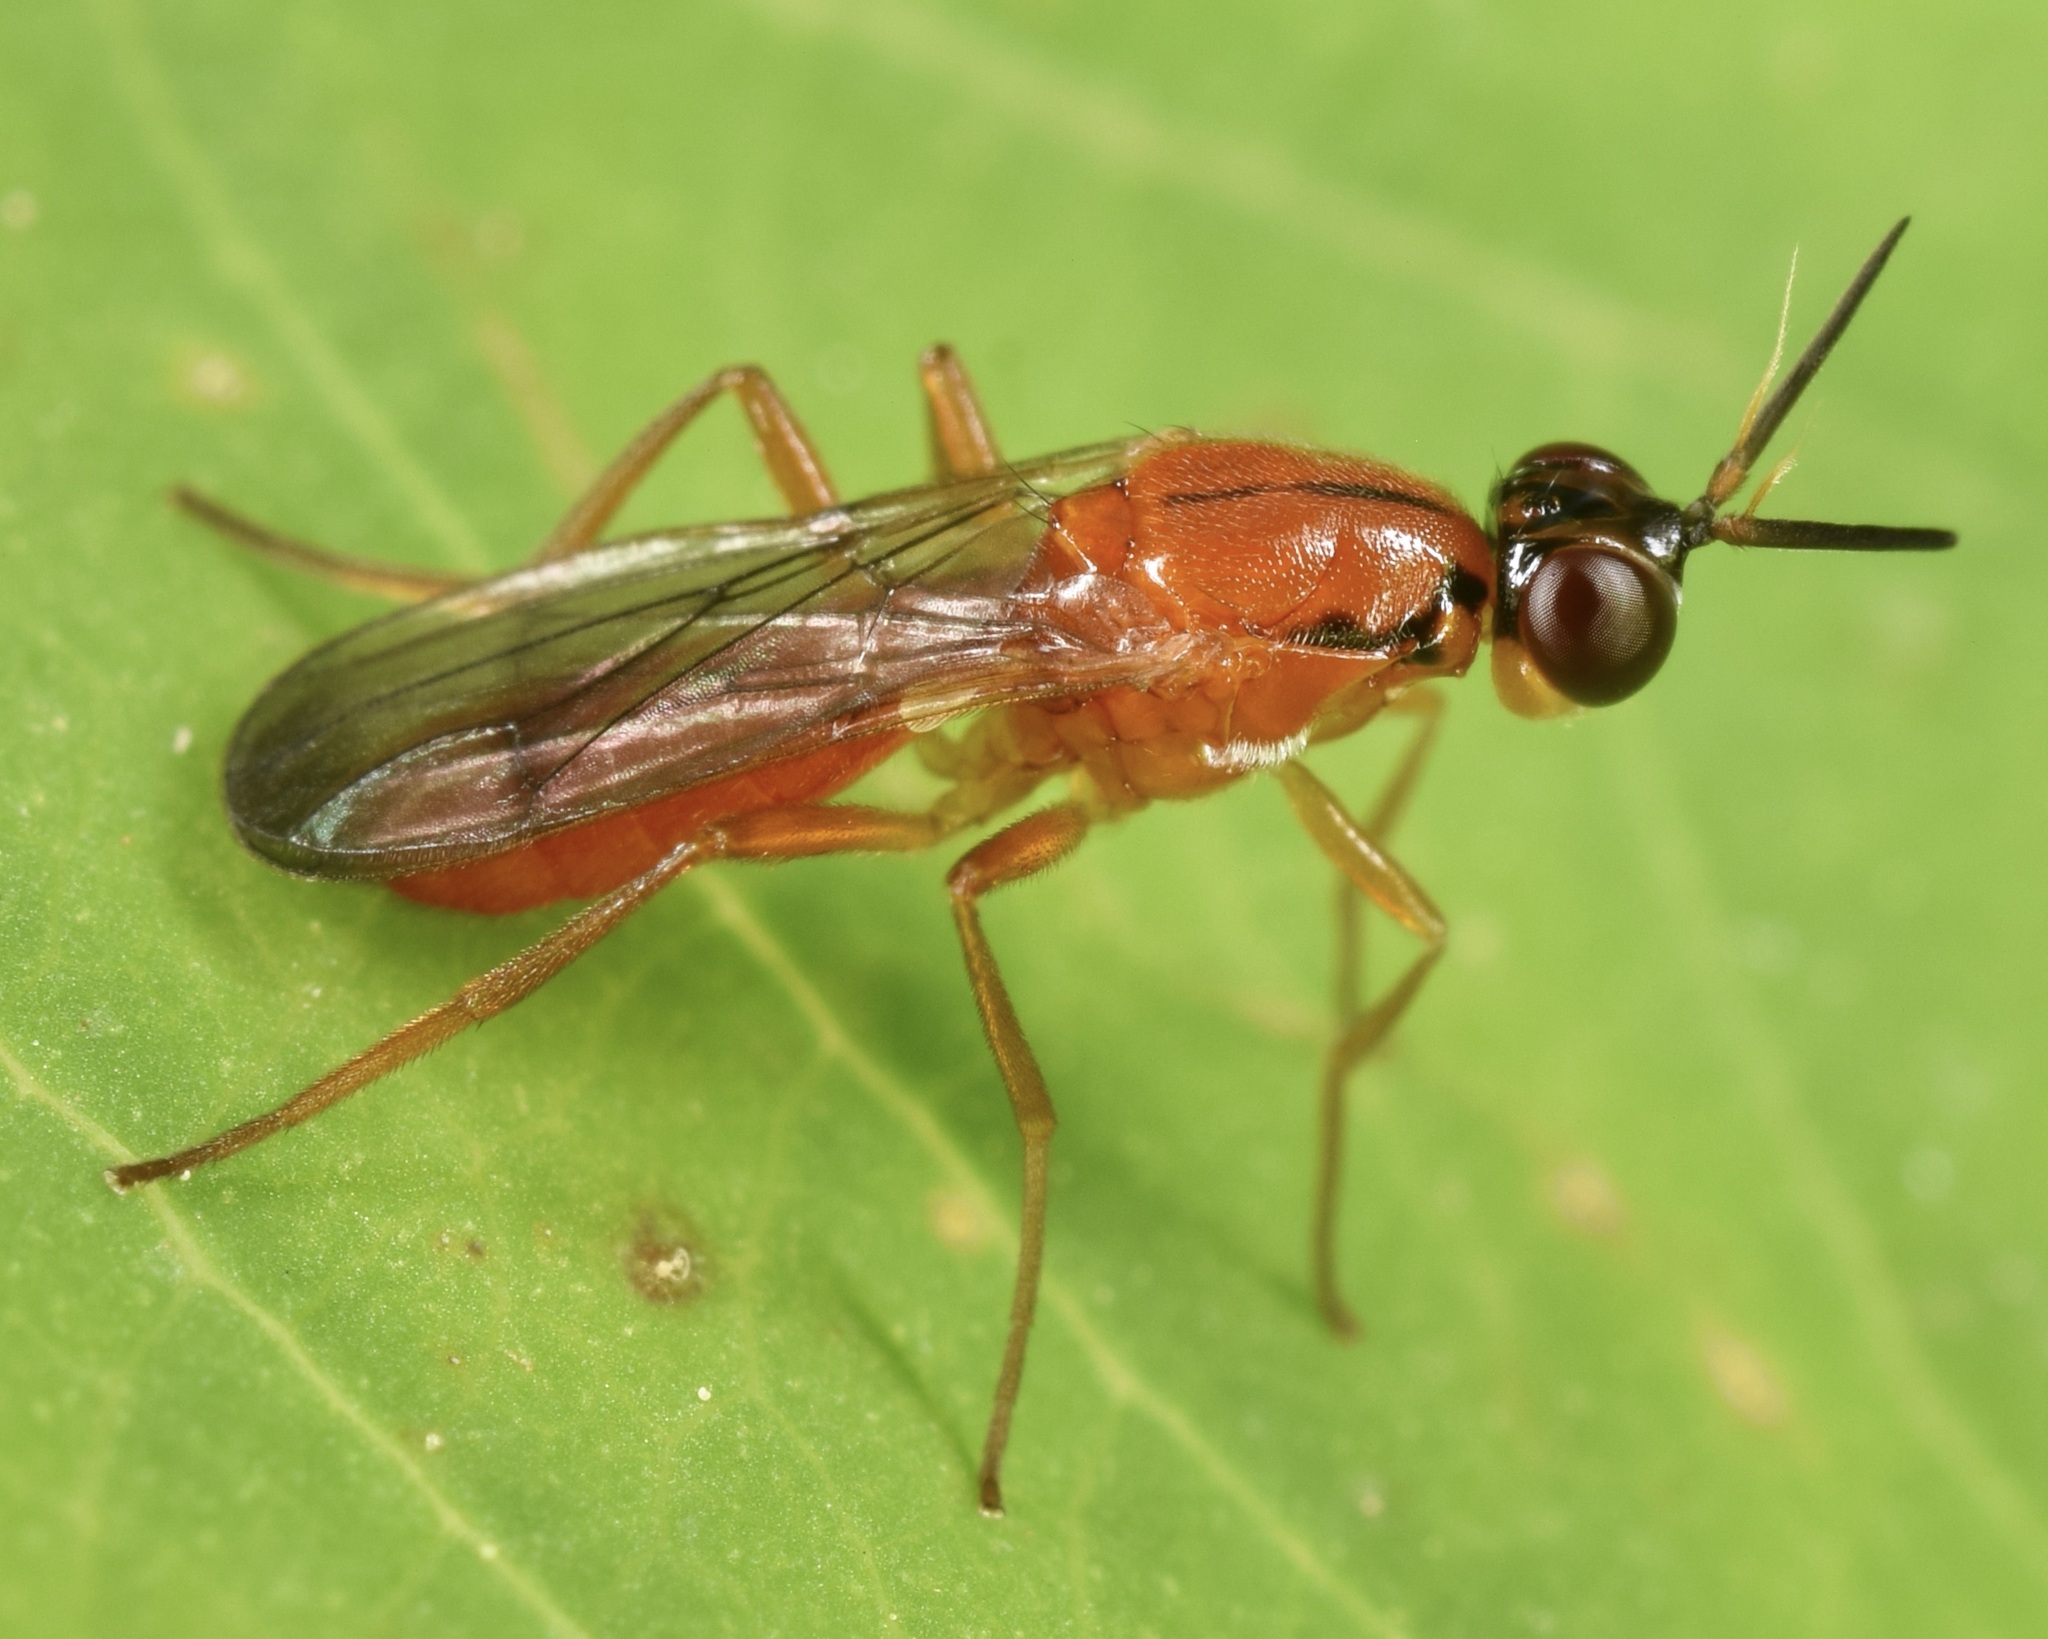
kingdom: Animalia
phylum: Arthropoda
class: Insecta
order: Diptera
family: Psilidae
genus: Loxocera
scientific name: Loxocera cylindrica
